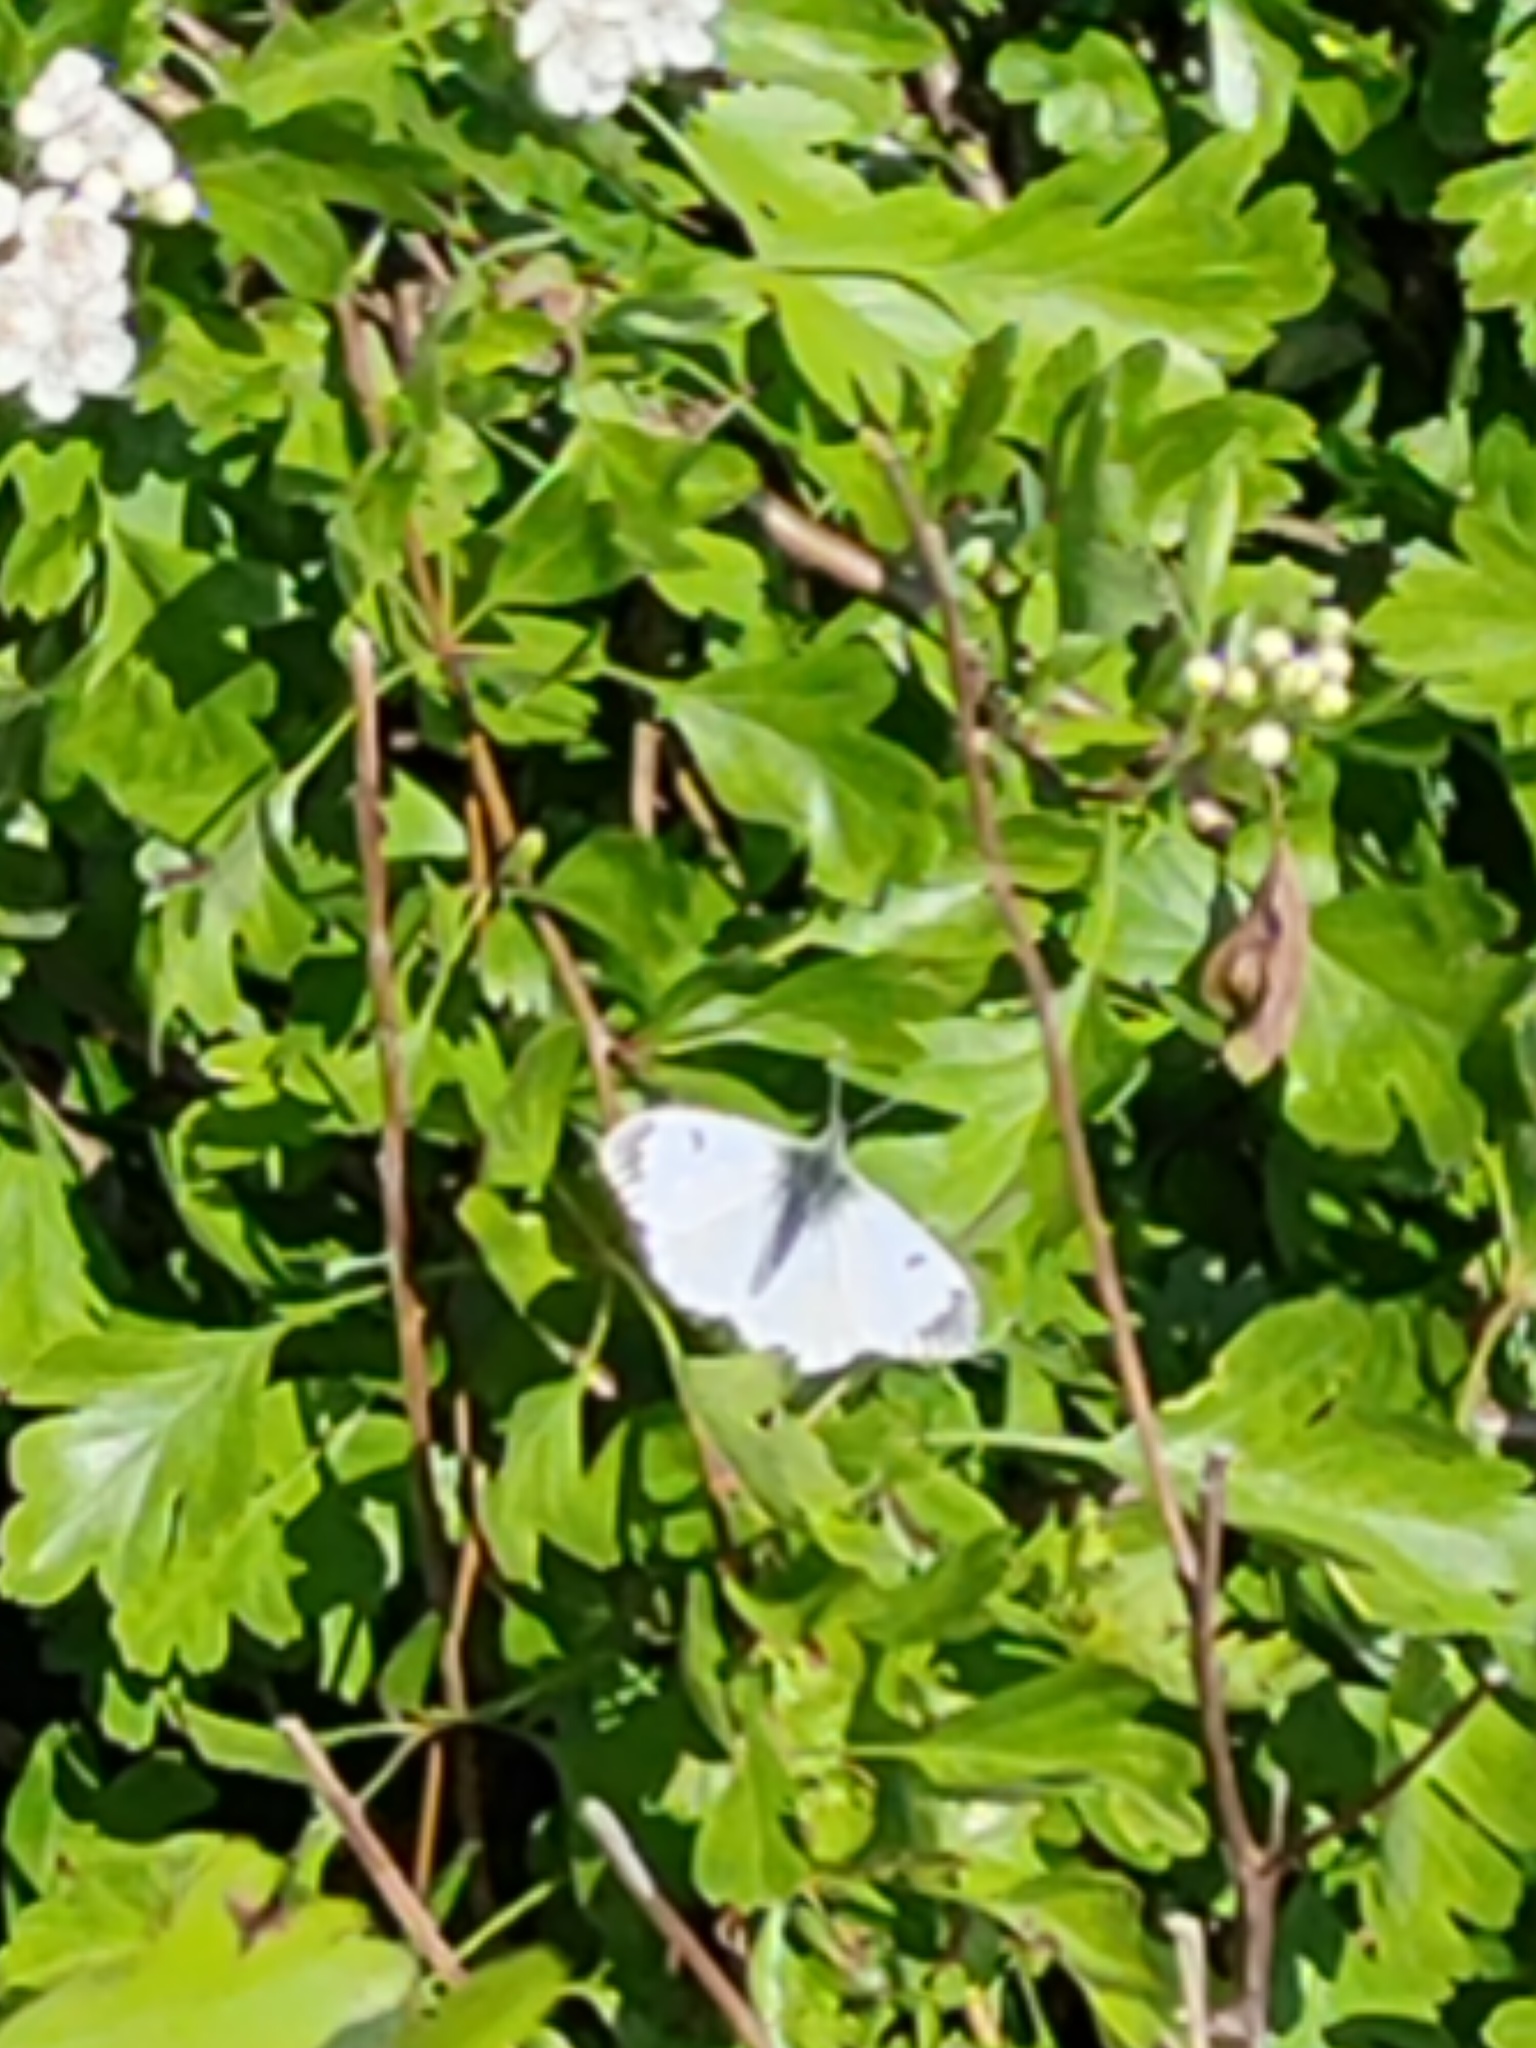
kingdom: Animalia
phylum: Arthropoda
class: Insecta
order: Lepidoptera
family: Pieridae
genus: Anthocharis
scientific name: Anthocharis cardamines
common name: Orange-tip
